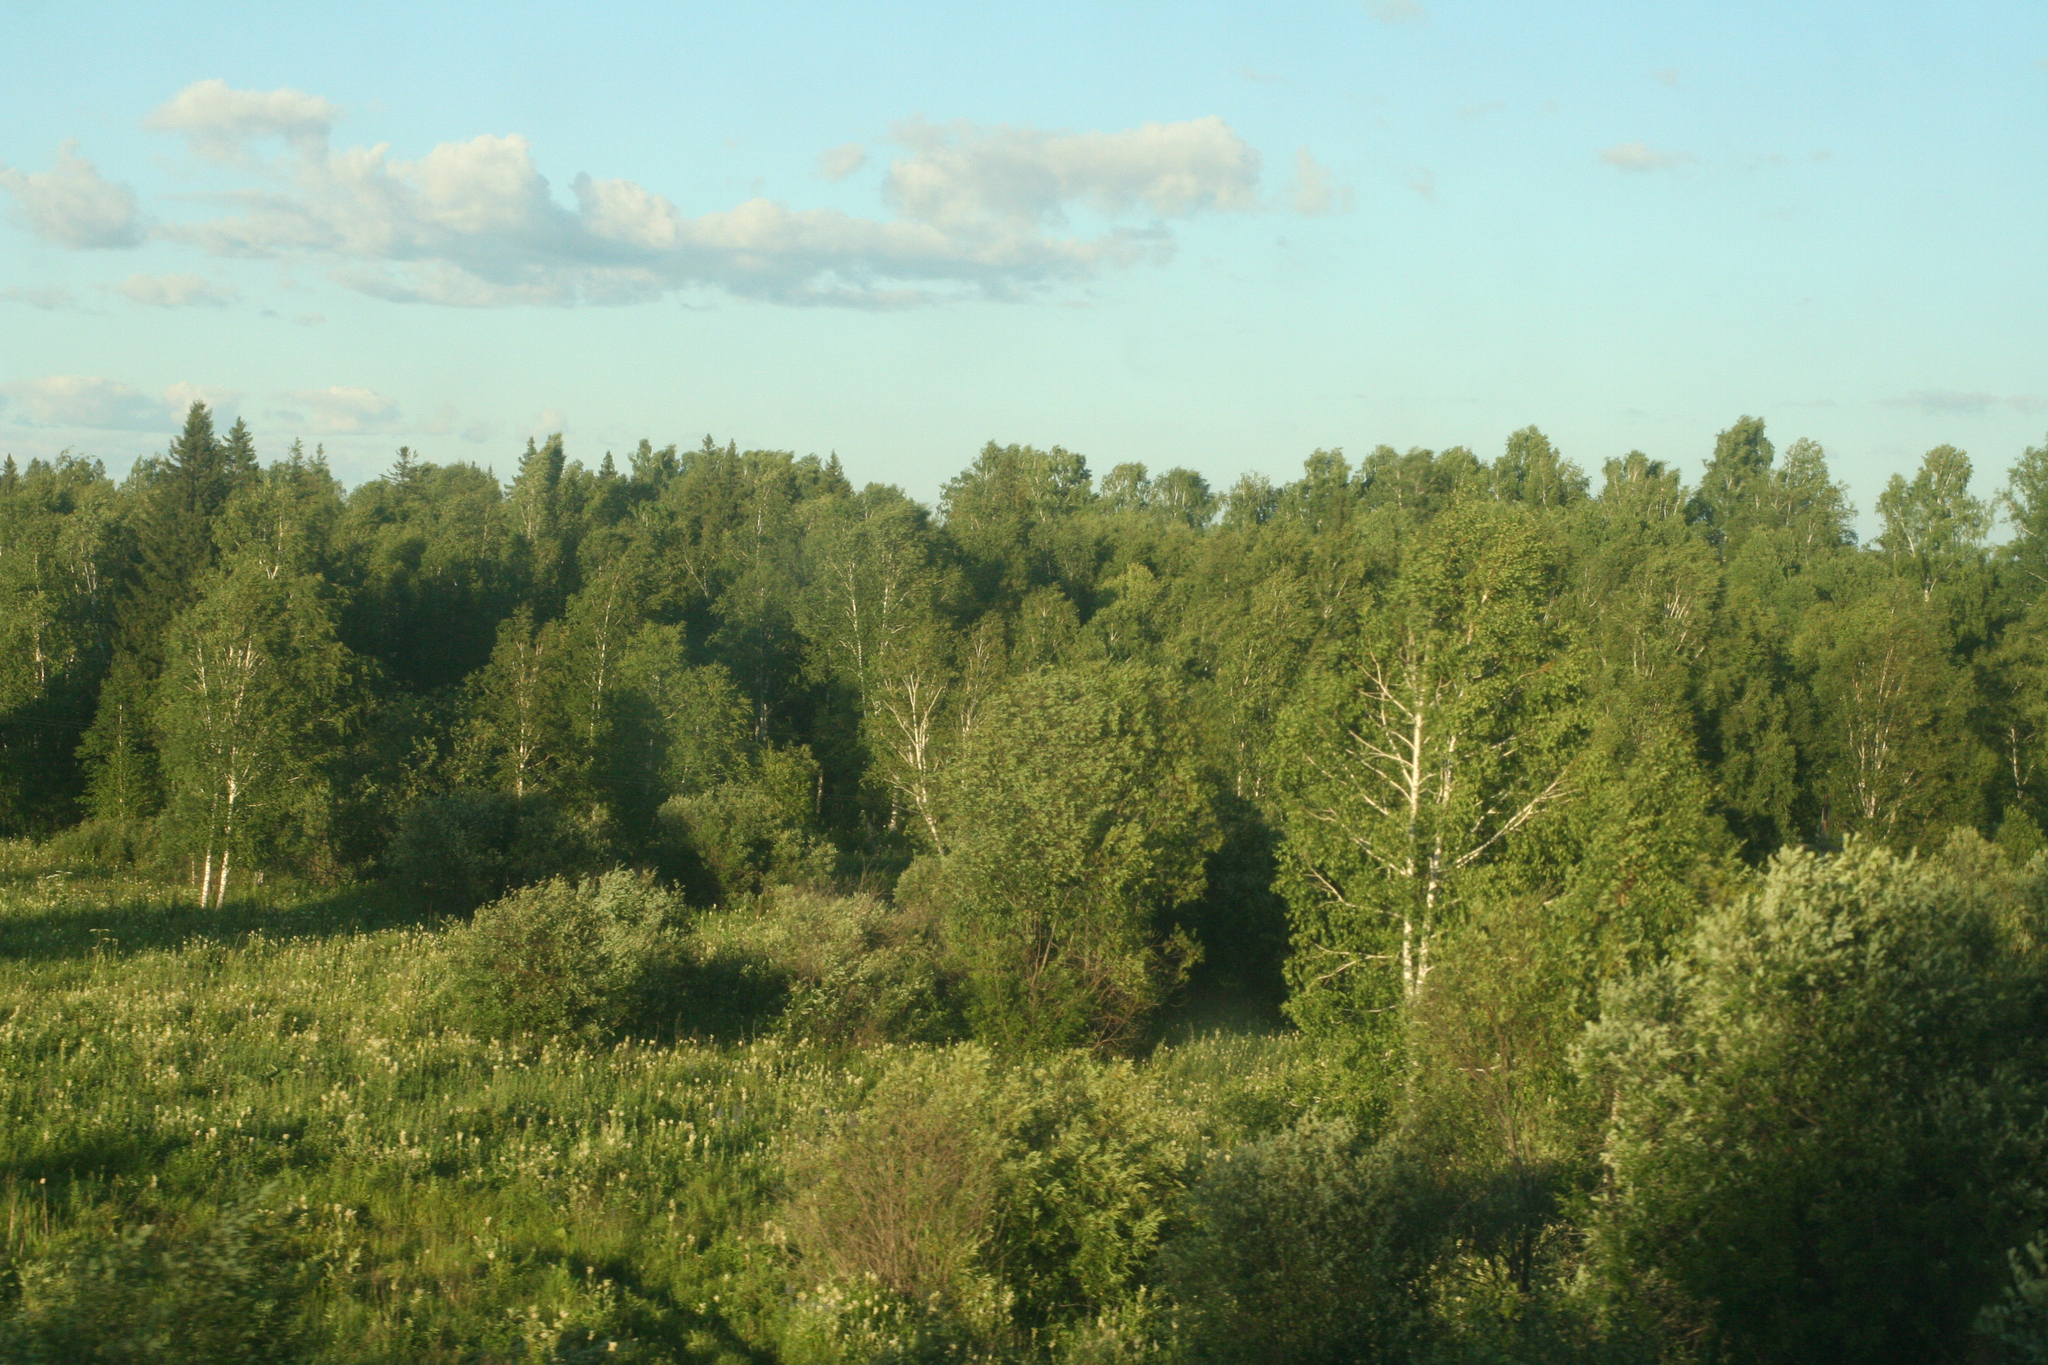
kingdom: Plantae
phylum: Tracheophyta
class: Magnoliopsida
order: Malpighiales
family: Salicaceae
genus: Salix
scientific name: Salix caprea
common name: Goat willow
